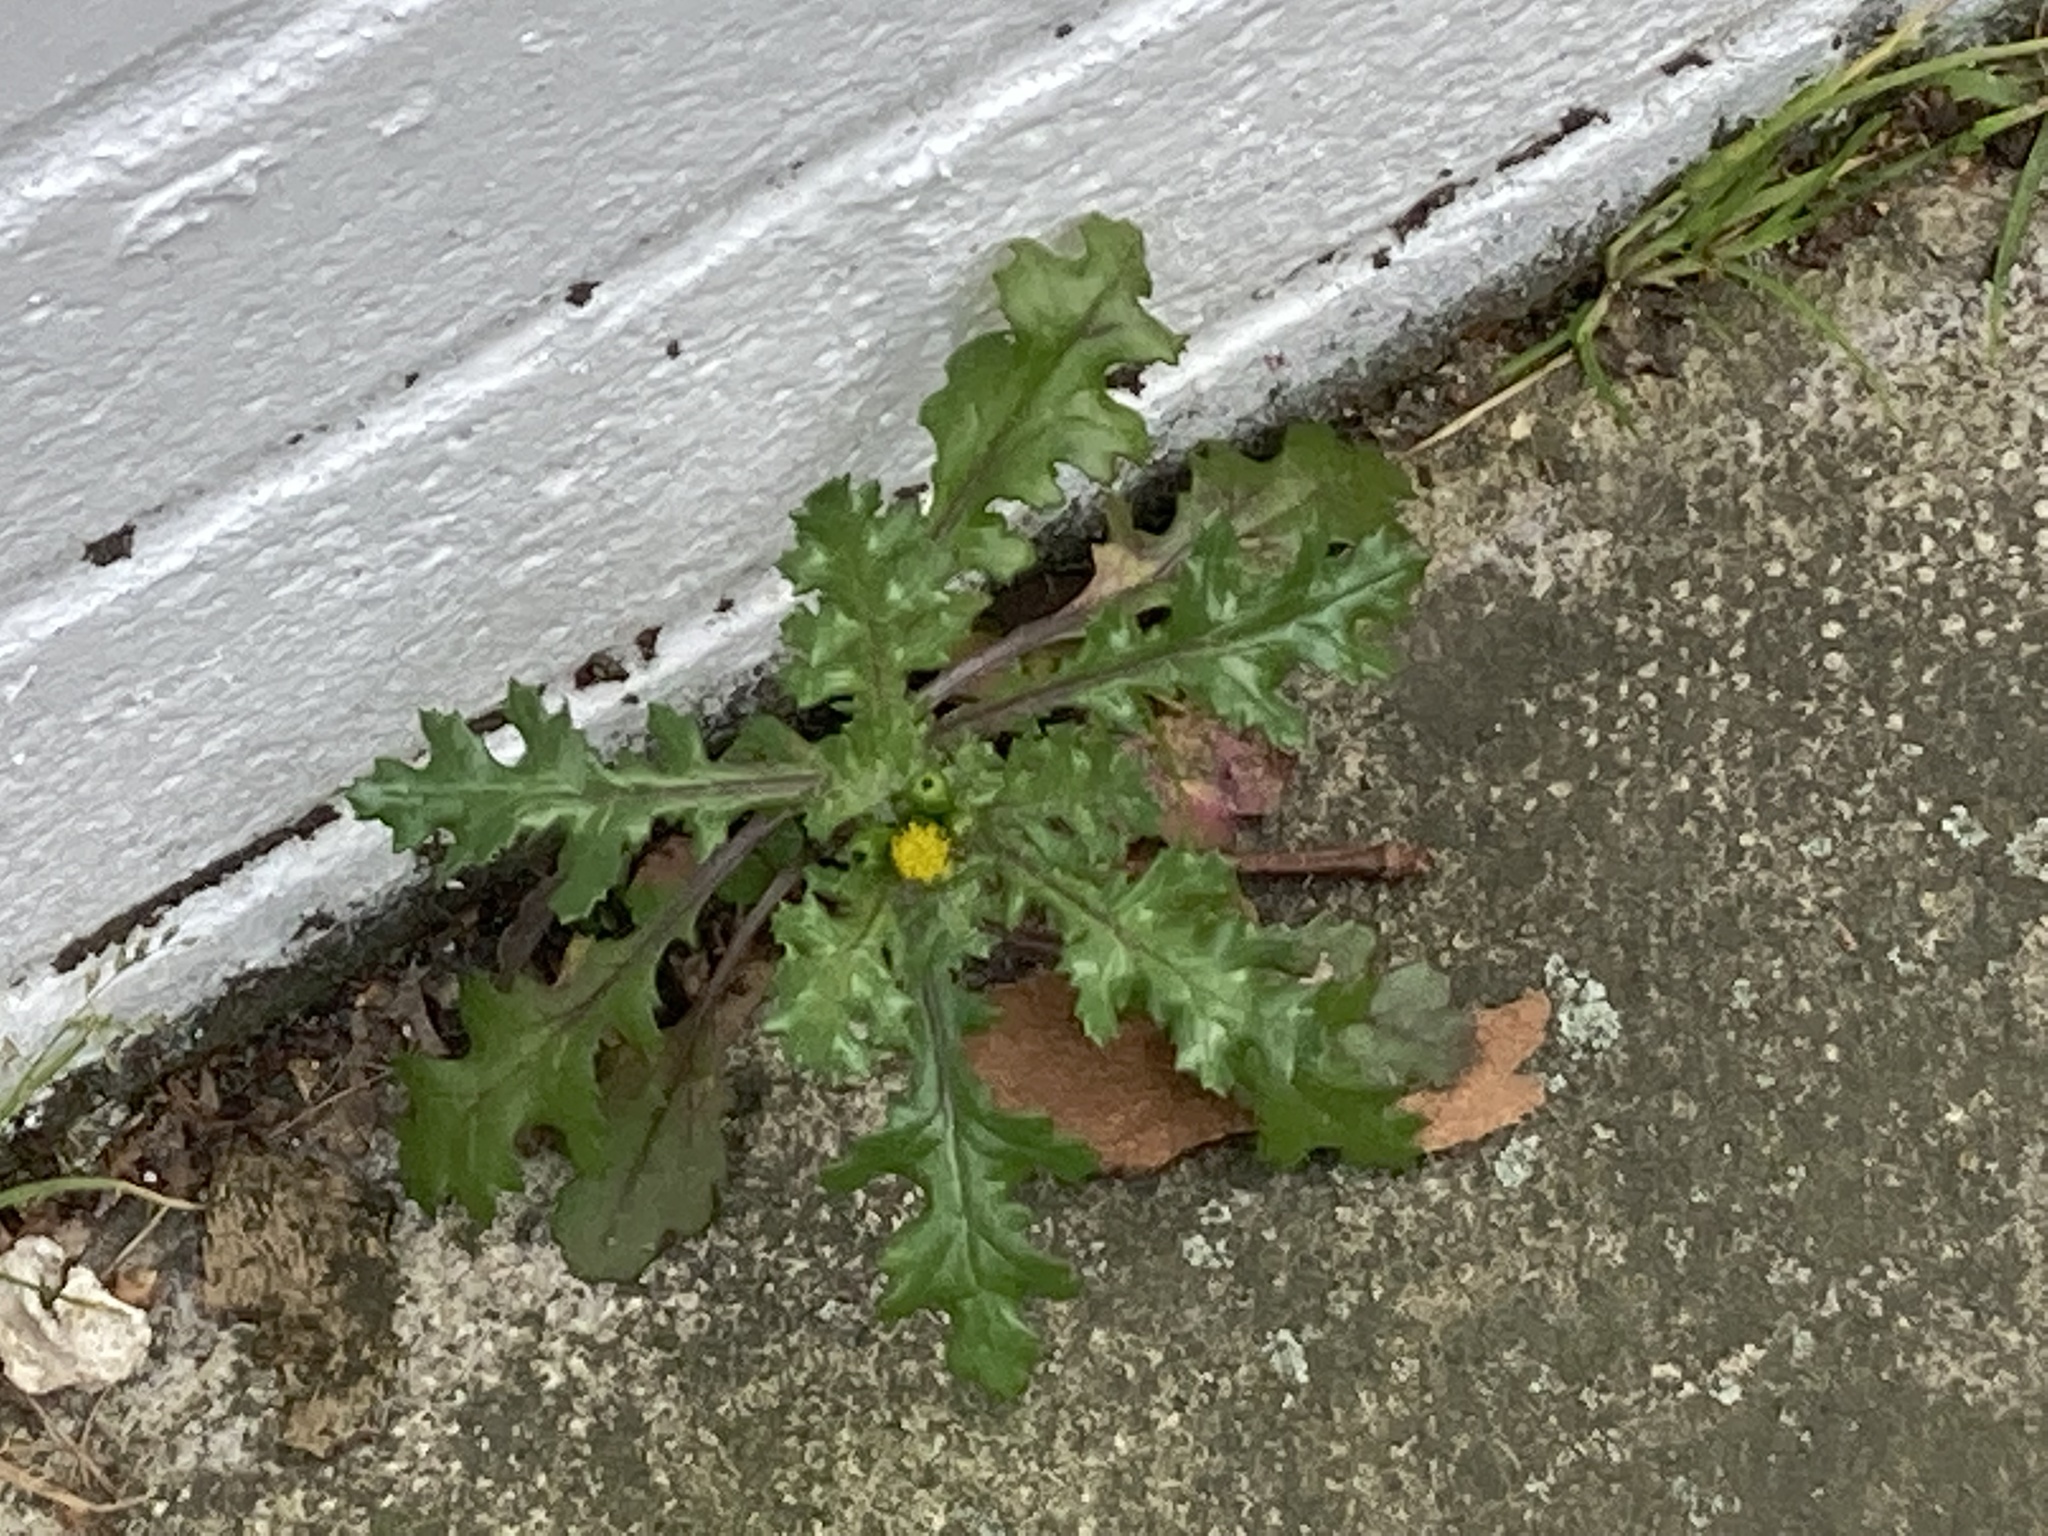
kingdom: Plantae
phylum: Tracheophyta
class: Magnoliopsida
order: Asterales
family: Asteraceae
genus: Senecio
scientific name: Senecio vulgaris
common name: Old-man-in-the-spring
